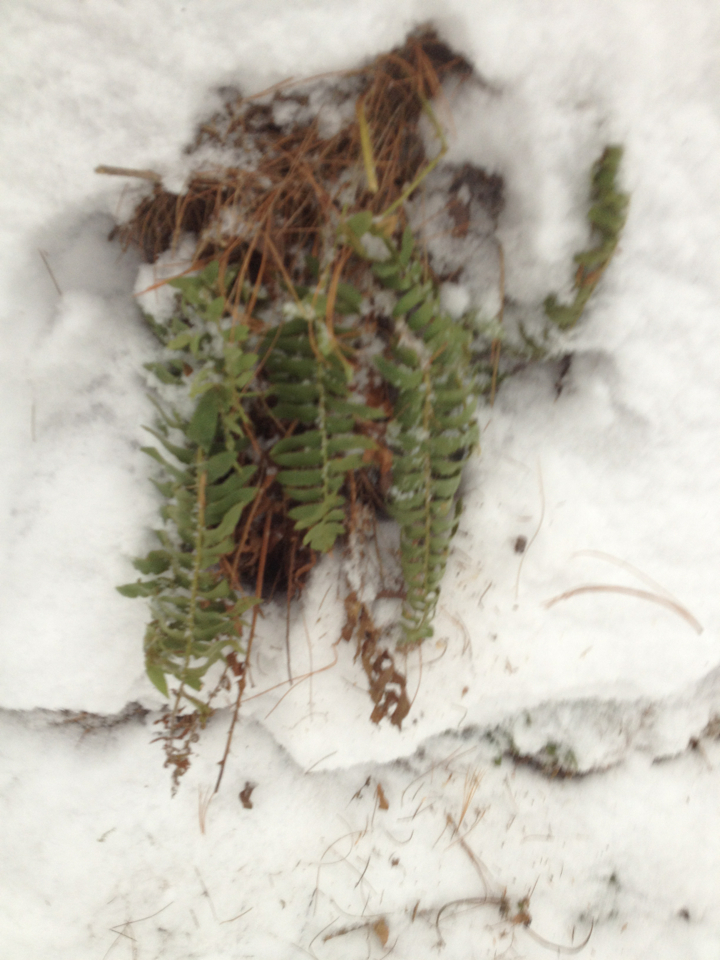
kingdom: Plantae
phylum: Tracheophyta
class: Polypodiopsida
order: Polypodiales
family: Dryopteridaceae
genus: Polystichum
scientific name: Polystichum acrostichoides
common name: Christmas fern
